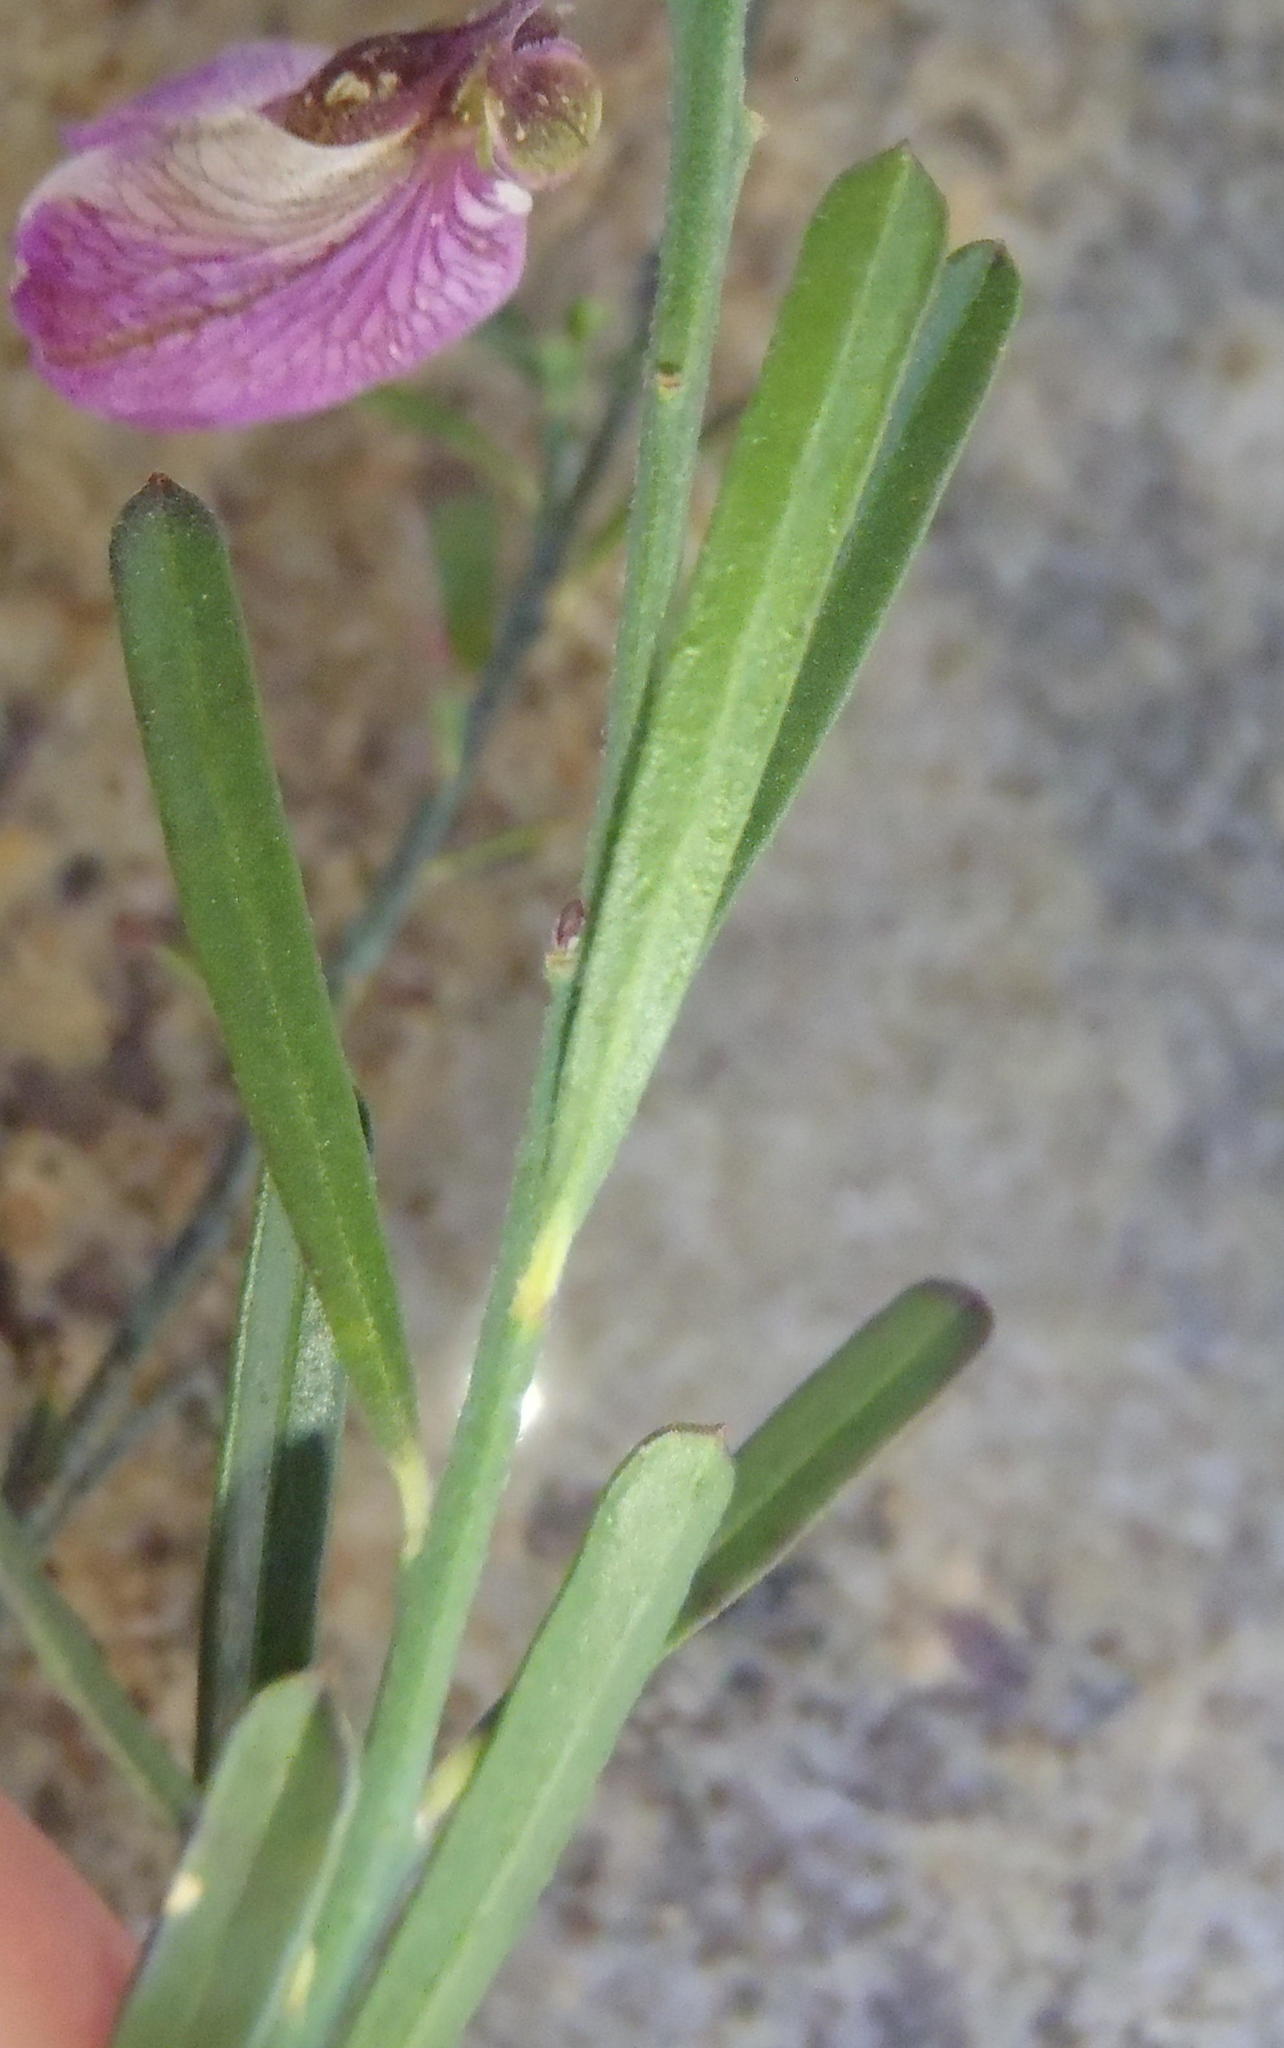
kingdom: Plantae
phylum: Tracheophyta
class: Magnoliopsida
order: Fabales
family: Polygalaceae
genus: Polygala
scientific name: Polygala virgata
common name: Milkwort
